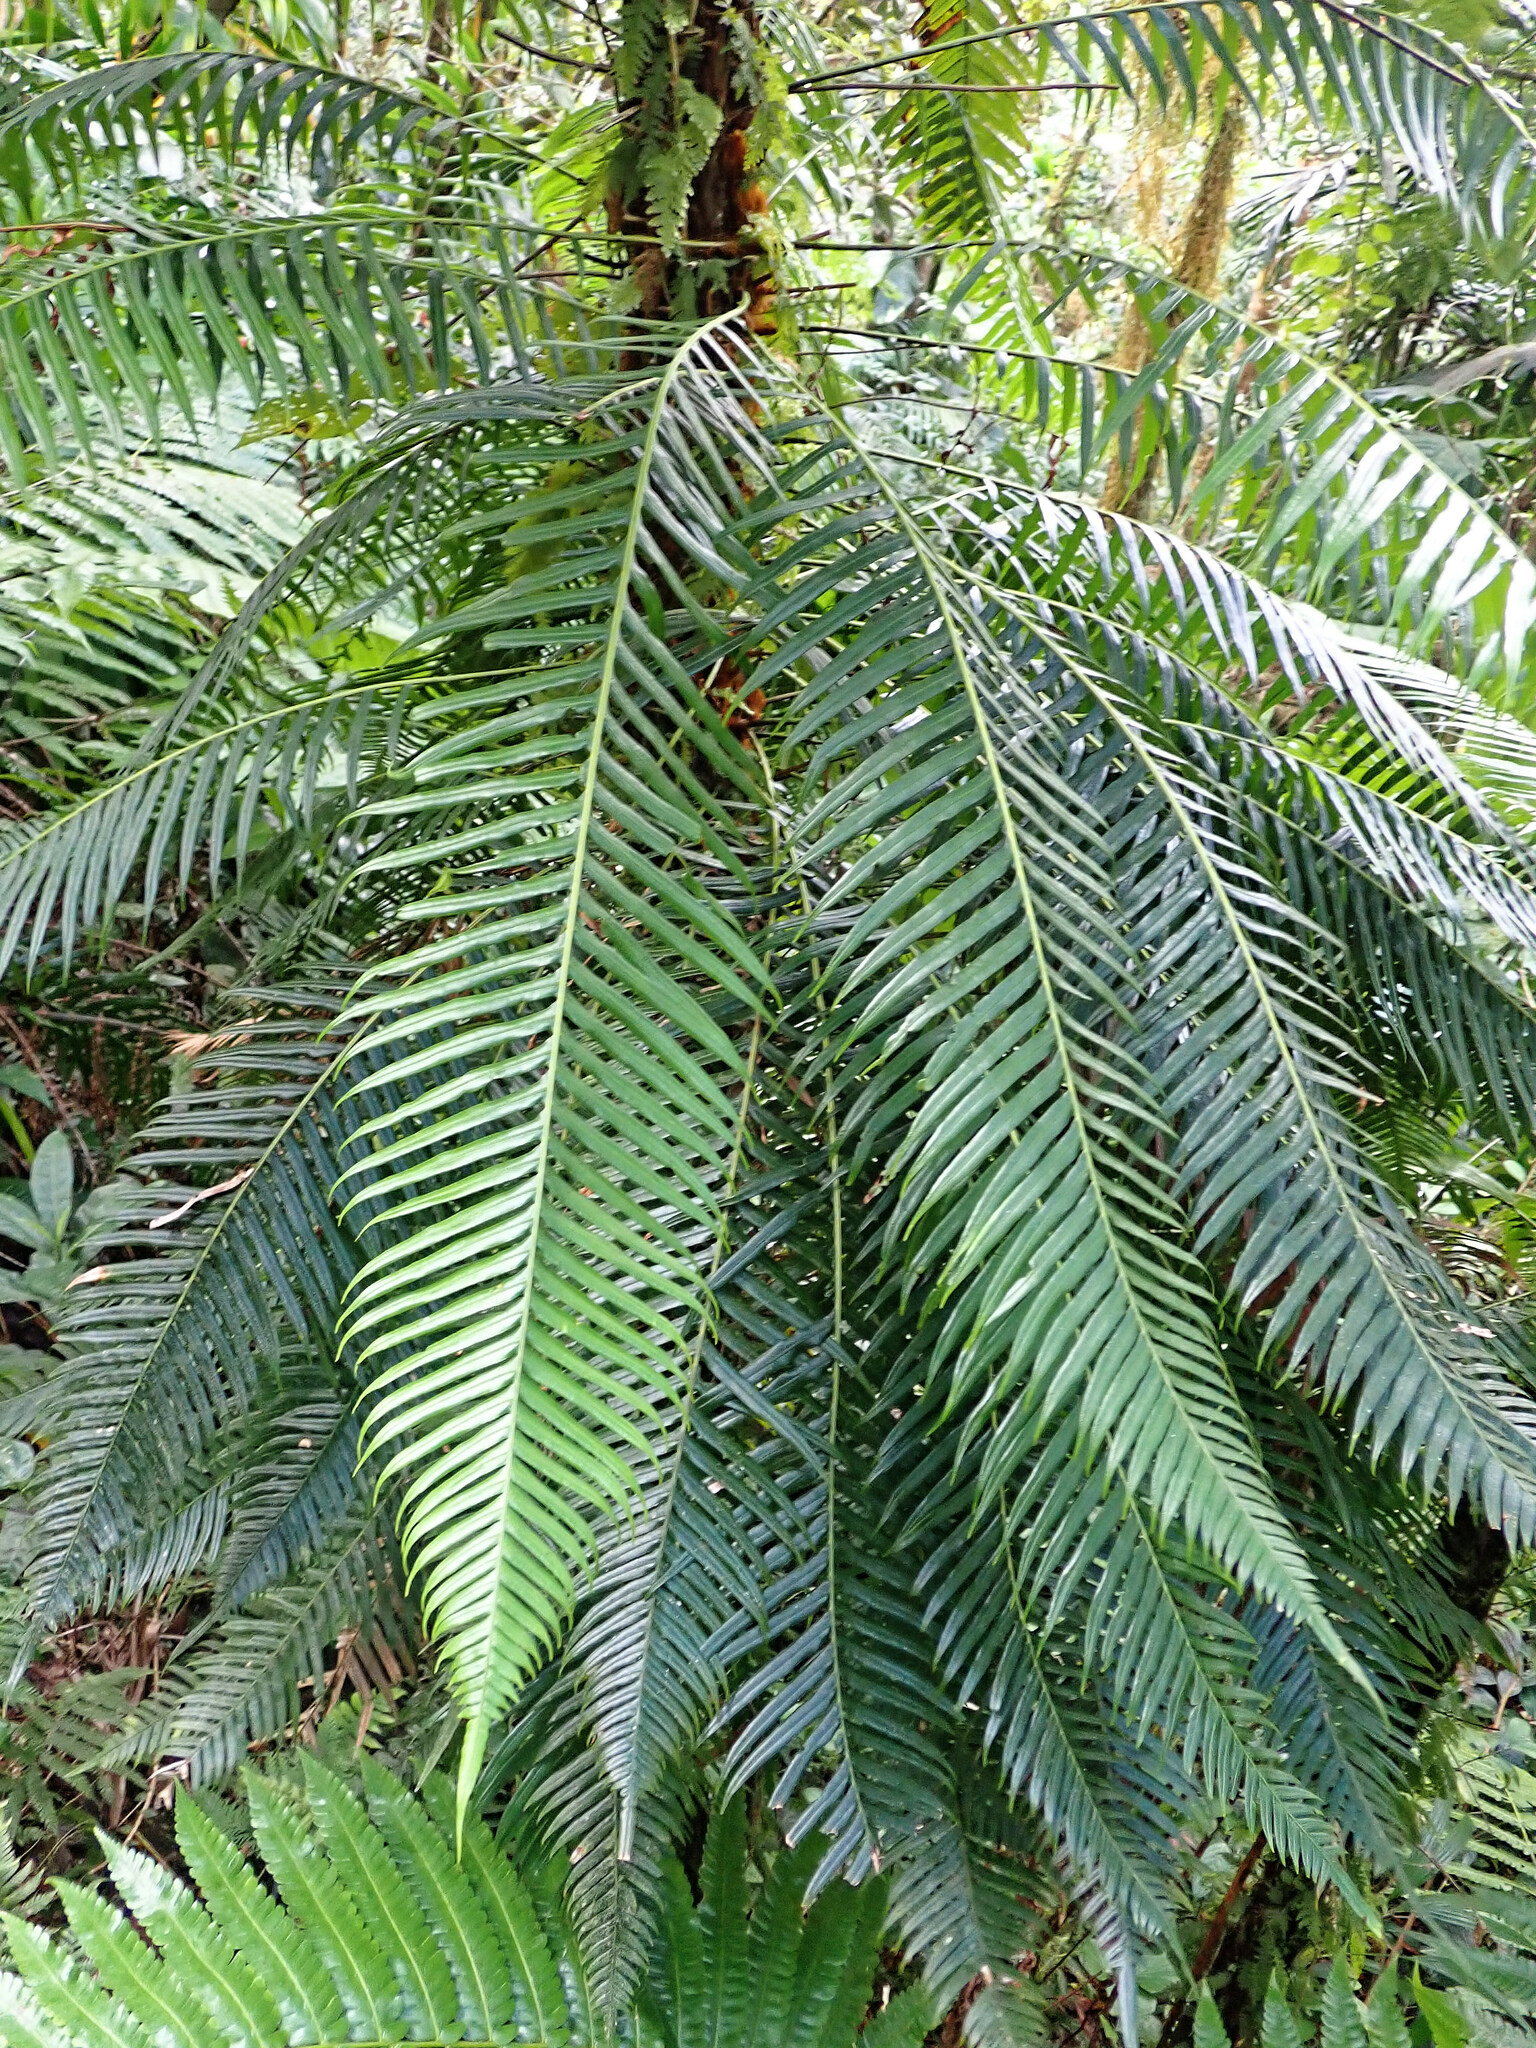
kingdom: Plantae
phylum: Tracheophyta
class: Polypodiopsida
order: Polypodiales
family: Blechnaceae
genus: Lomaridium
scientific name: Lomaridium binervatum
